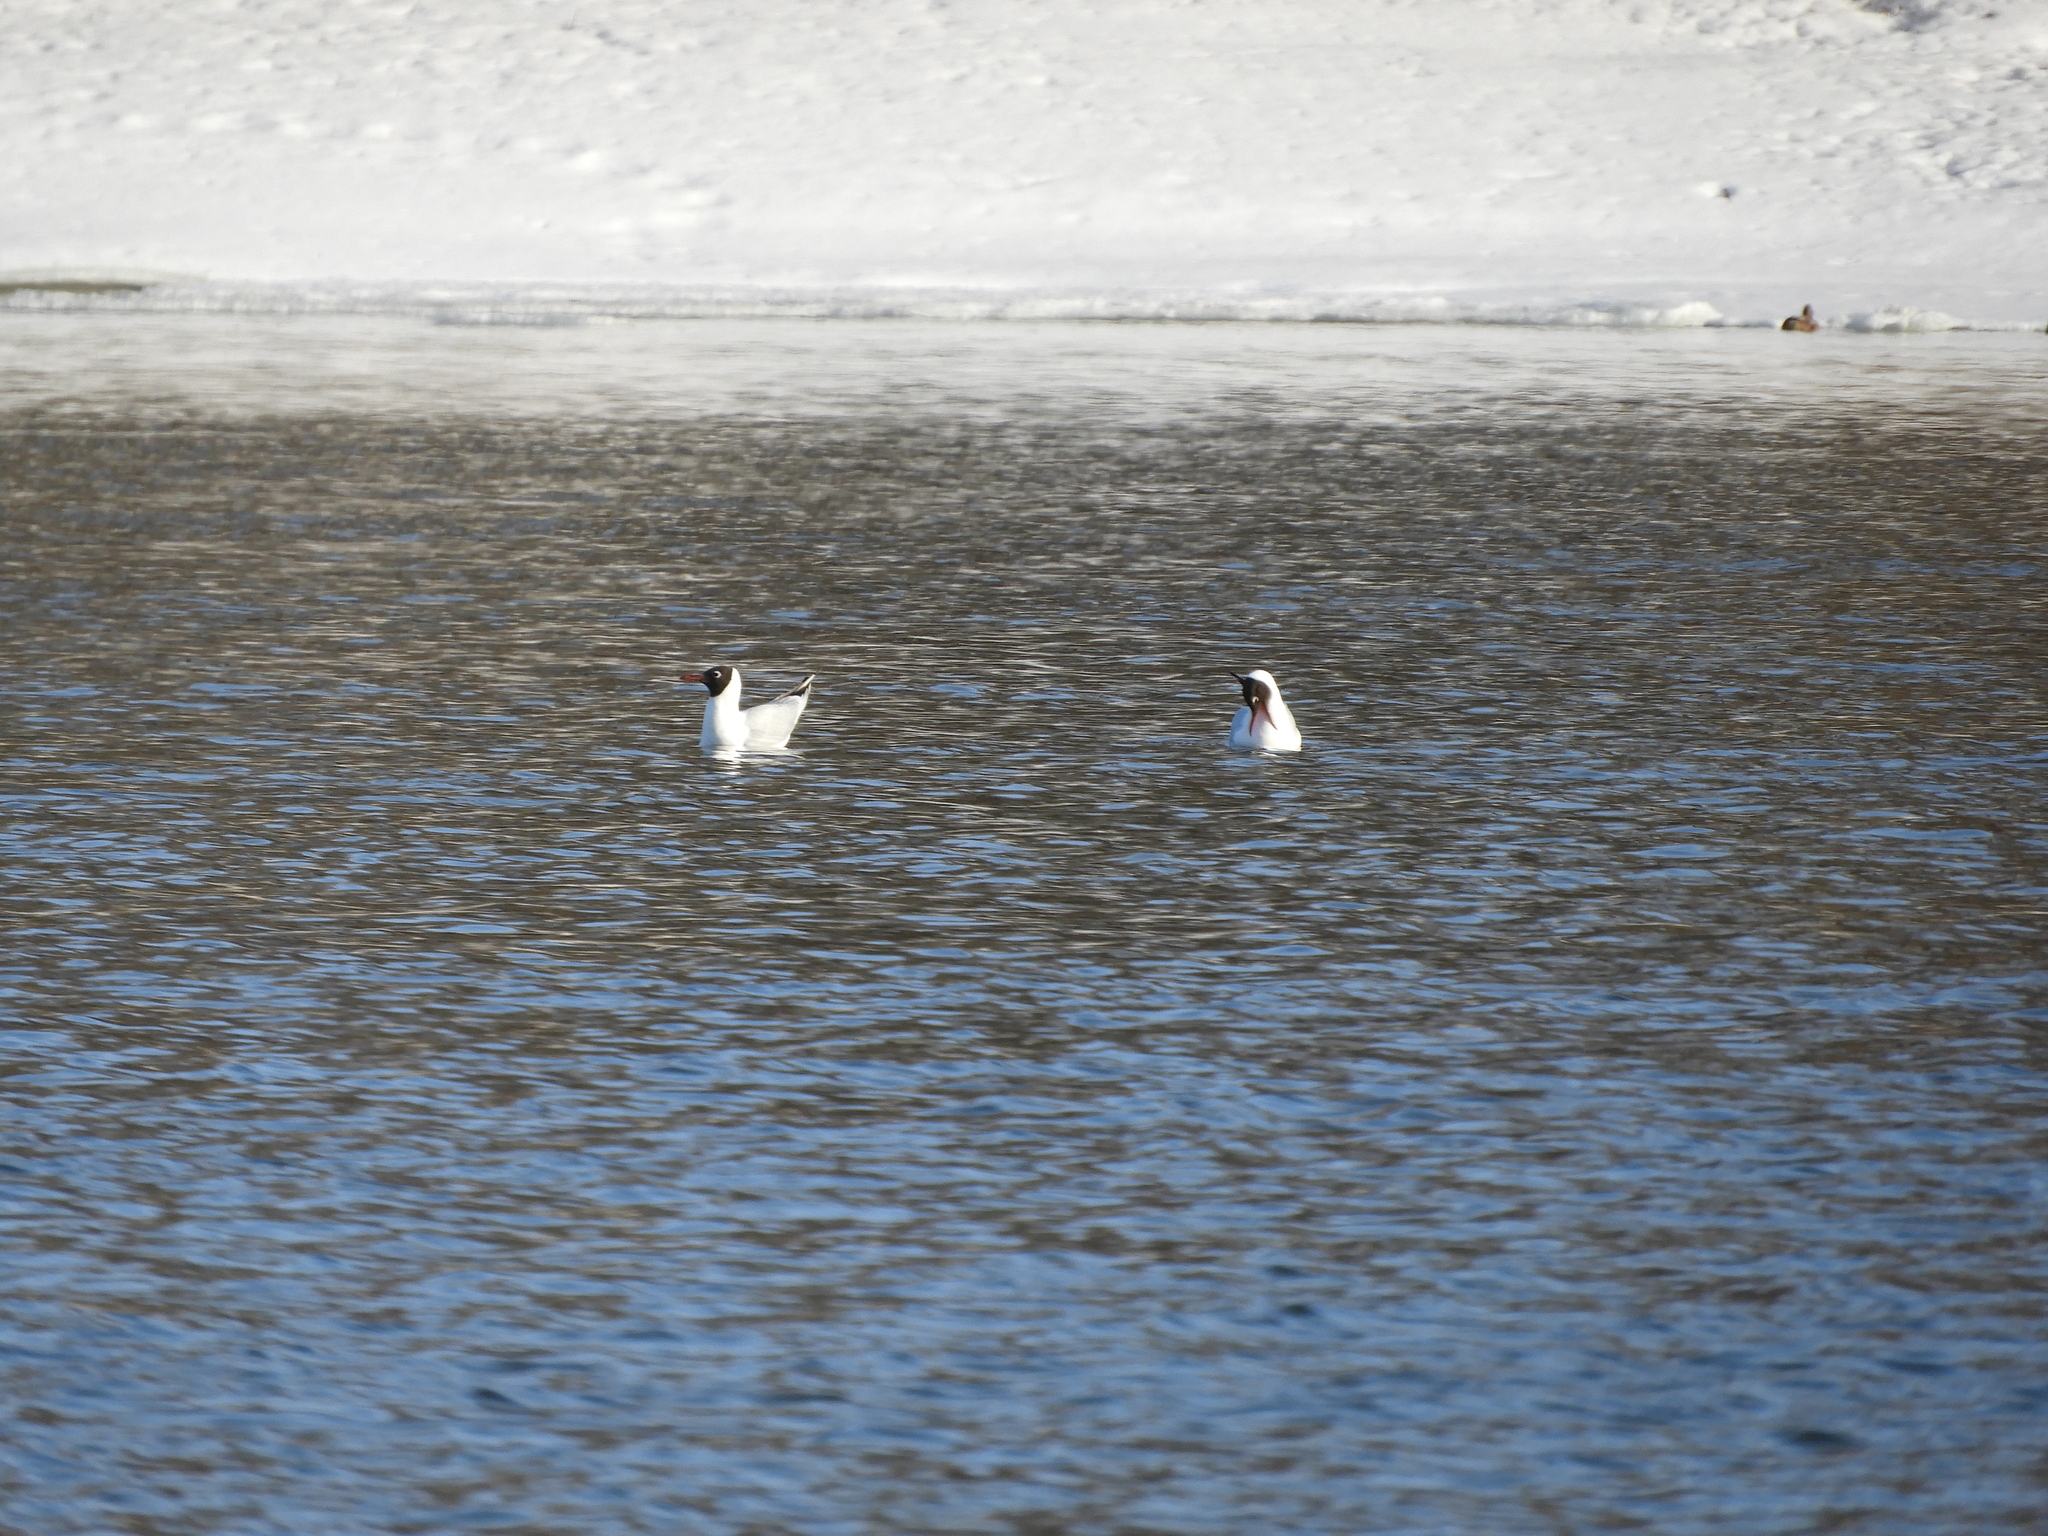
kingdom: Animalia
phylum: Chordata
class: Aves
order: Charadriiformes
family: Laridae
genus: Chroicocephalus
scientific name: Chroicocephalus ridibundus
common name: Black-headed gull
